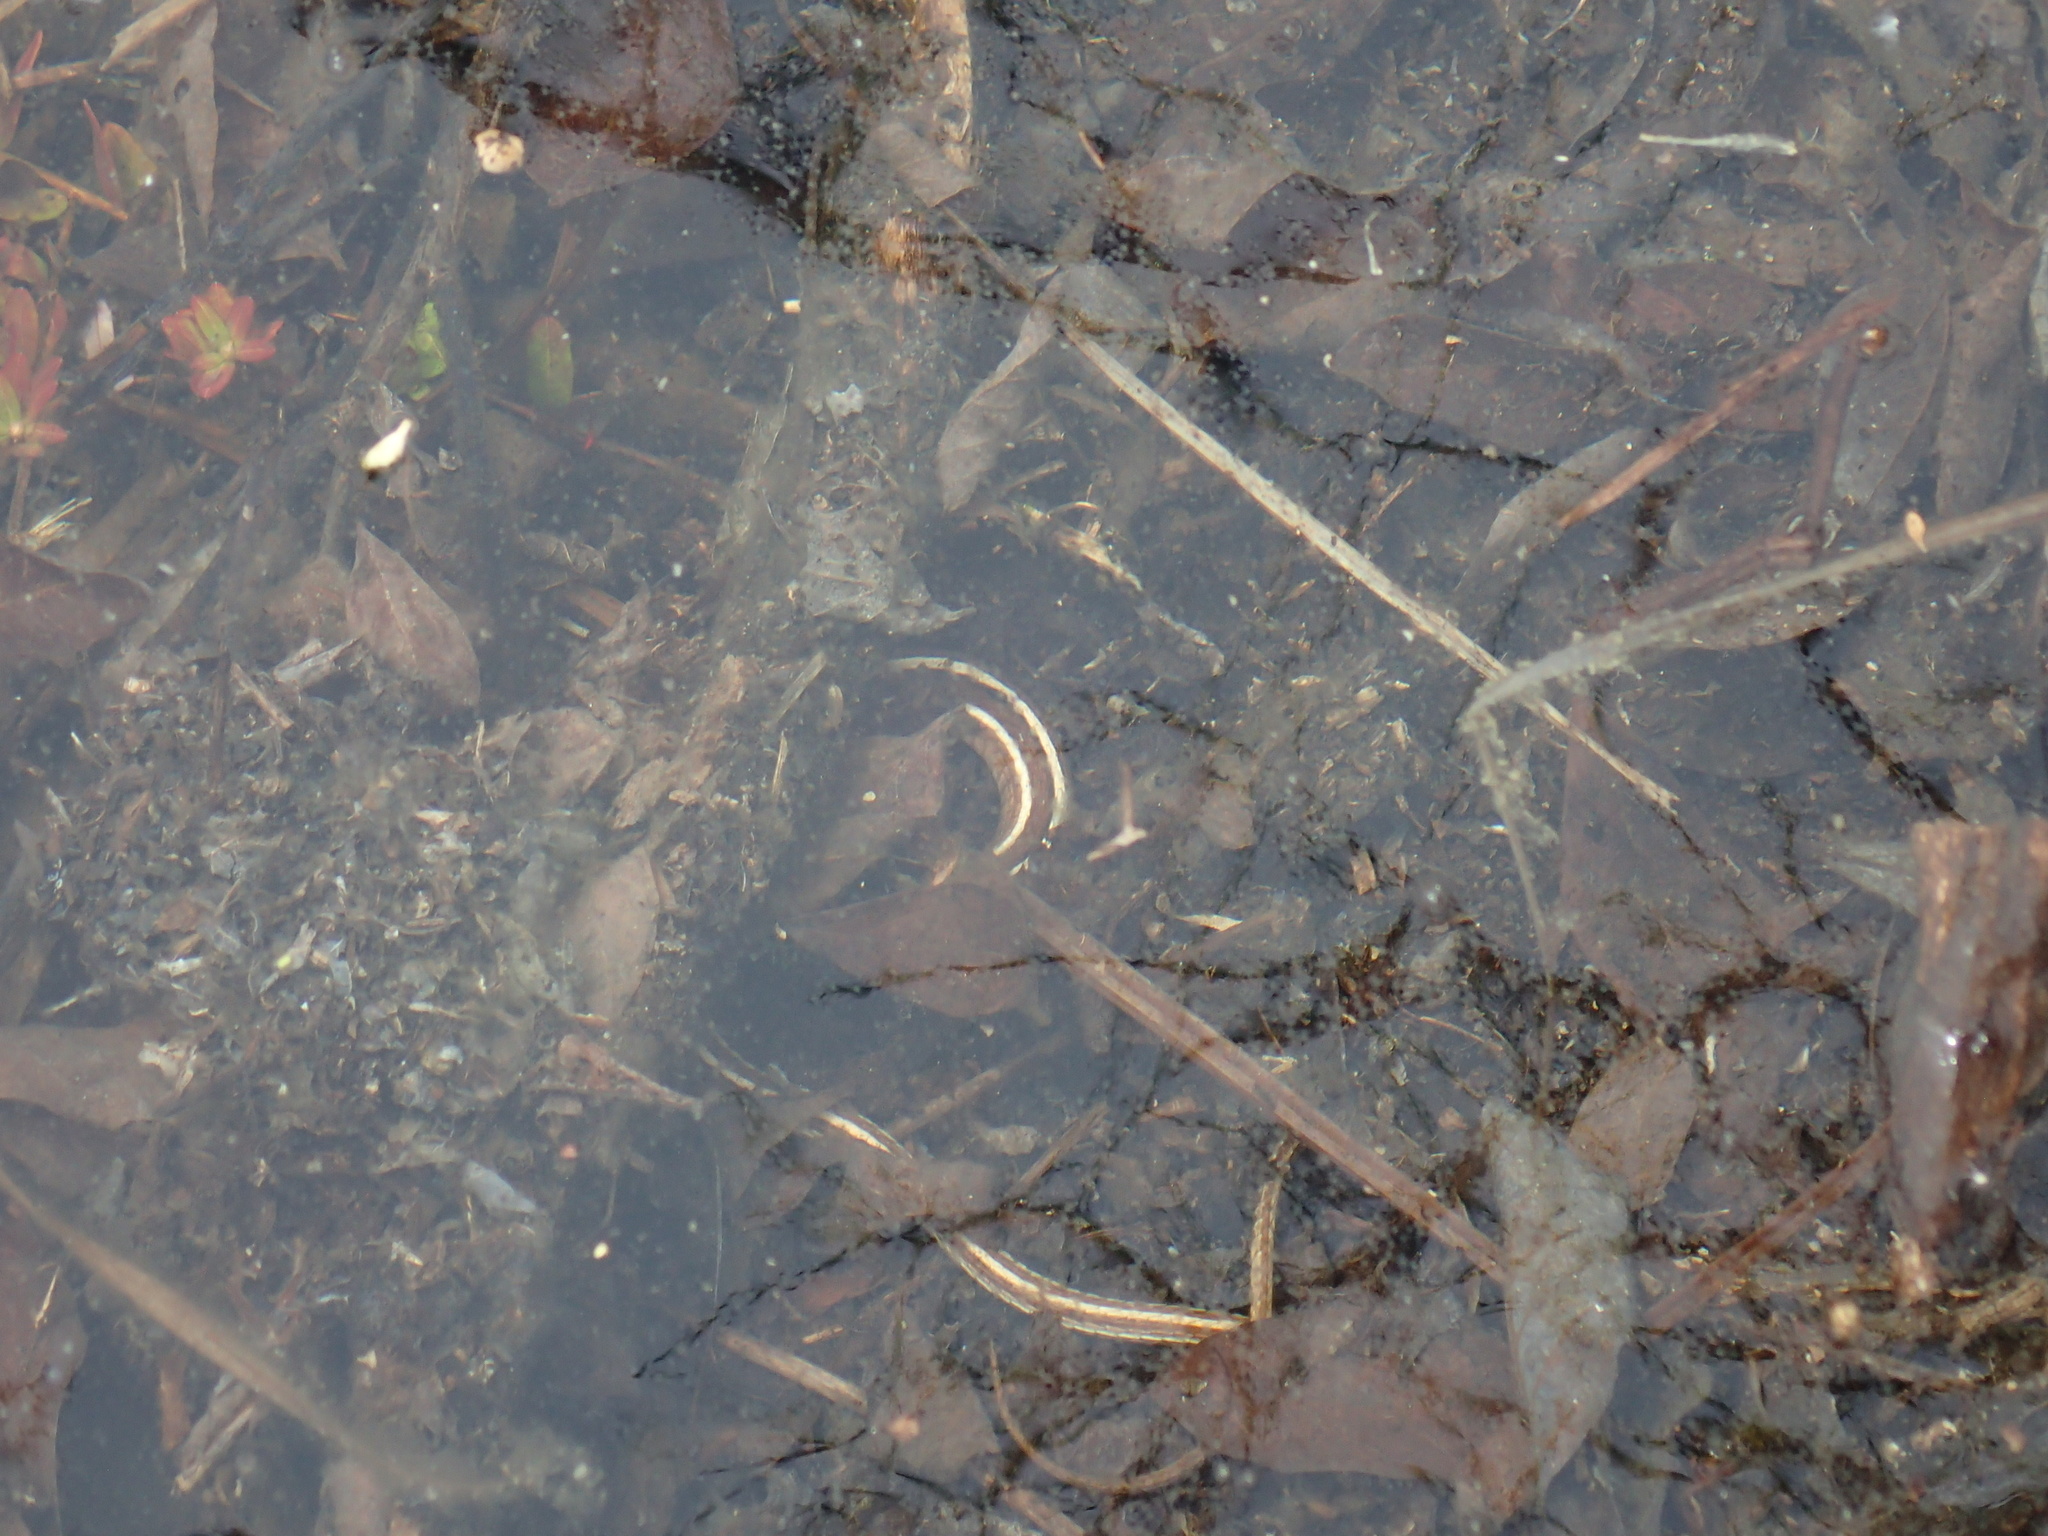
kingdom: Animalia
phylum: Chordata
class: Squamata
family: Colubridae
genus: Thamnophis
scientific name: Thamnophis saurita
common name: Eastern ribbonsnake
